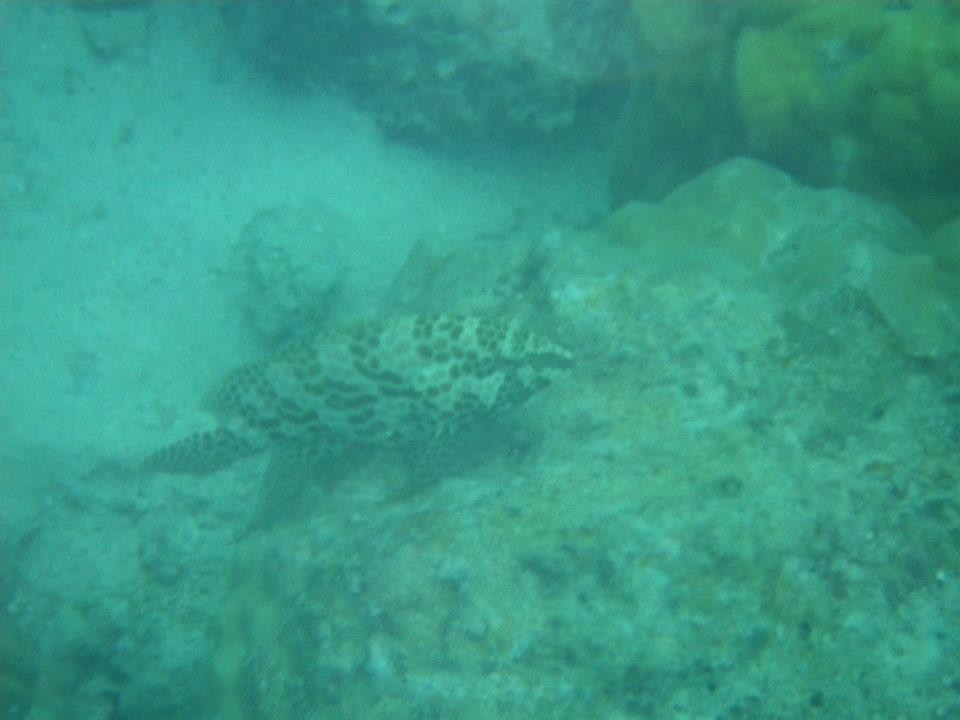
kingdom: Animalia
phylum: Chordata
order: Perciformes
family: Serranidae
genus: Epinephelus
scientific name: Epinephelus merra
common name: Honeycomb grouper
